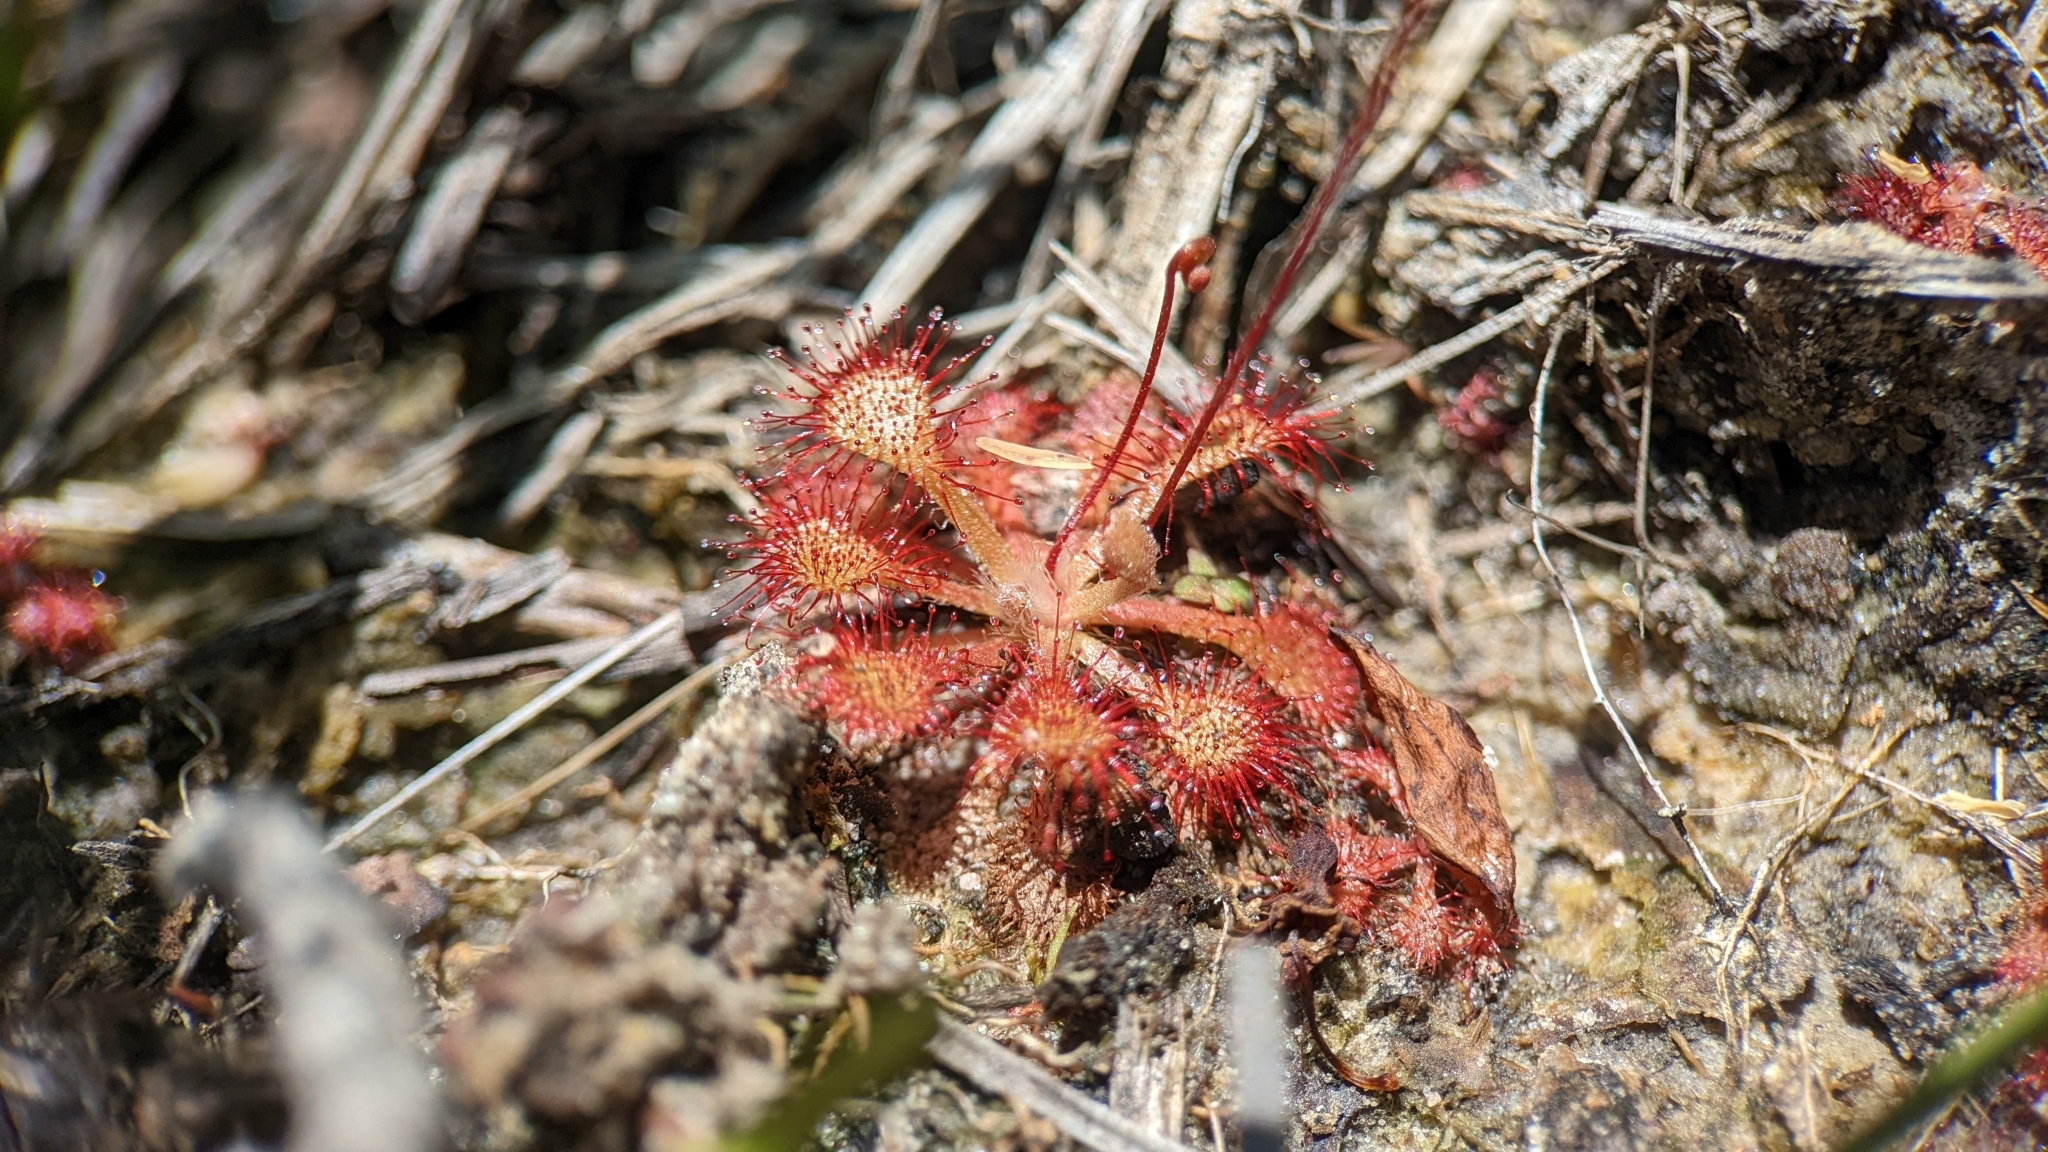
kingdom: Plantae
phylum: Tracheophyta
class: Magnoliopsida
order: Caryophyllales
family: Droseraceae
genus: Drosera
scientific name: Drosera capillaris
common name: Pink sundew
